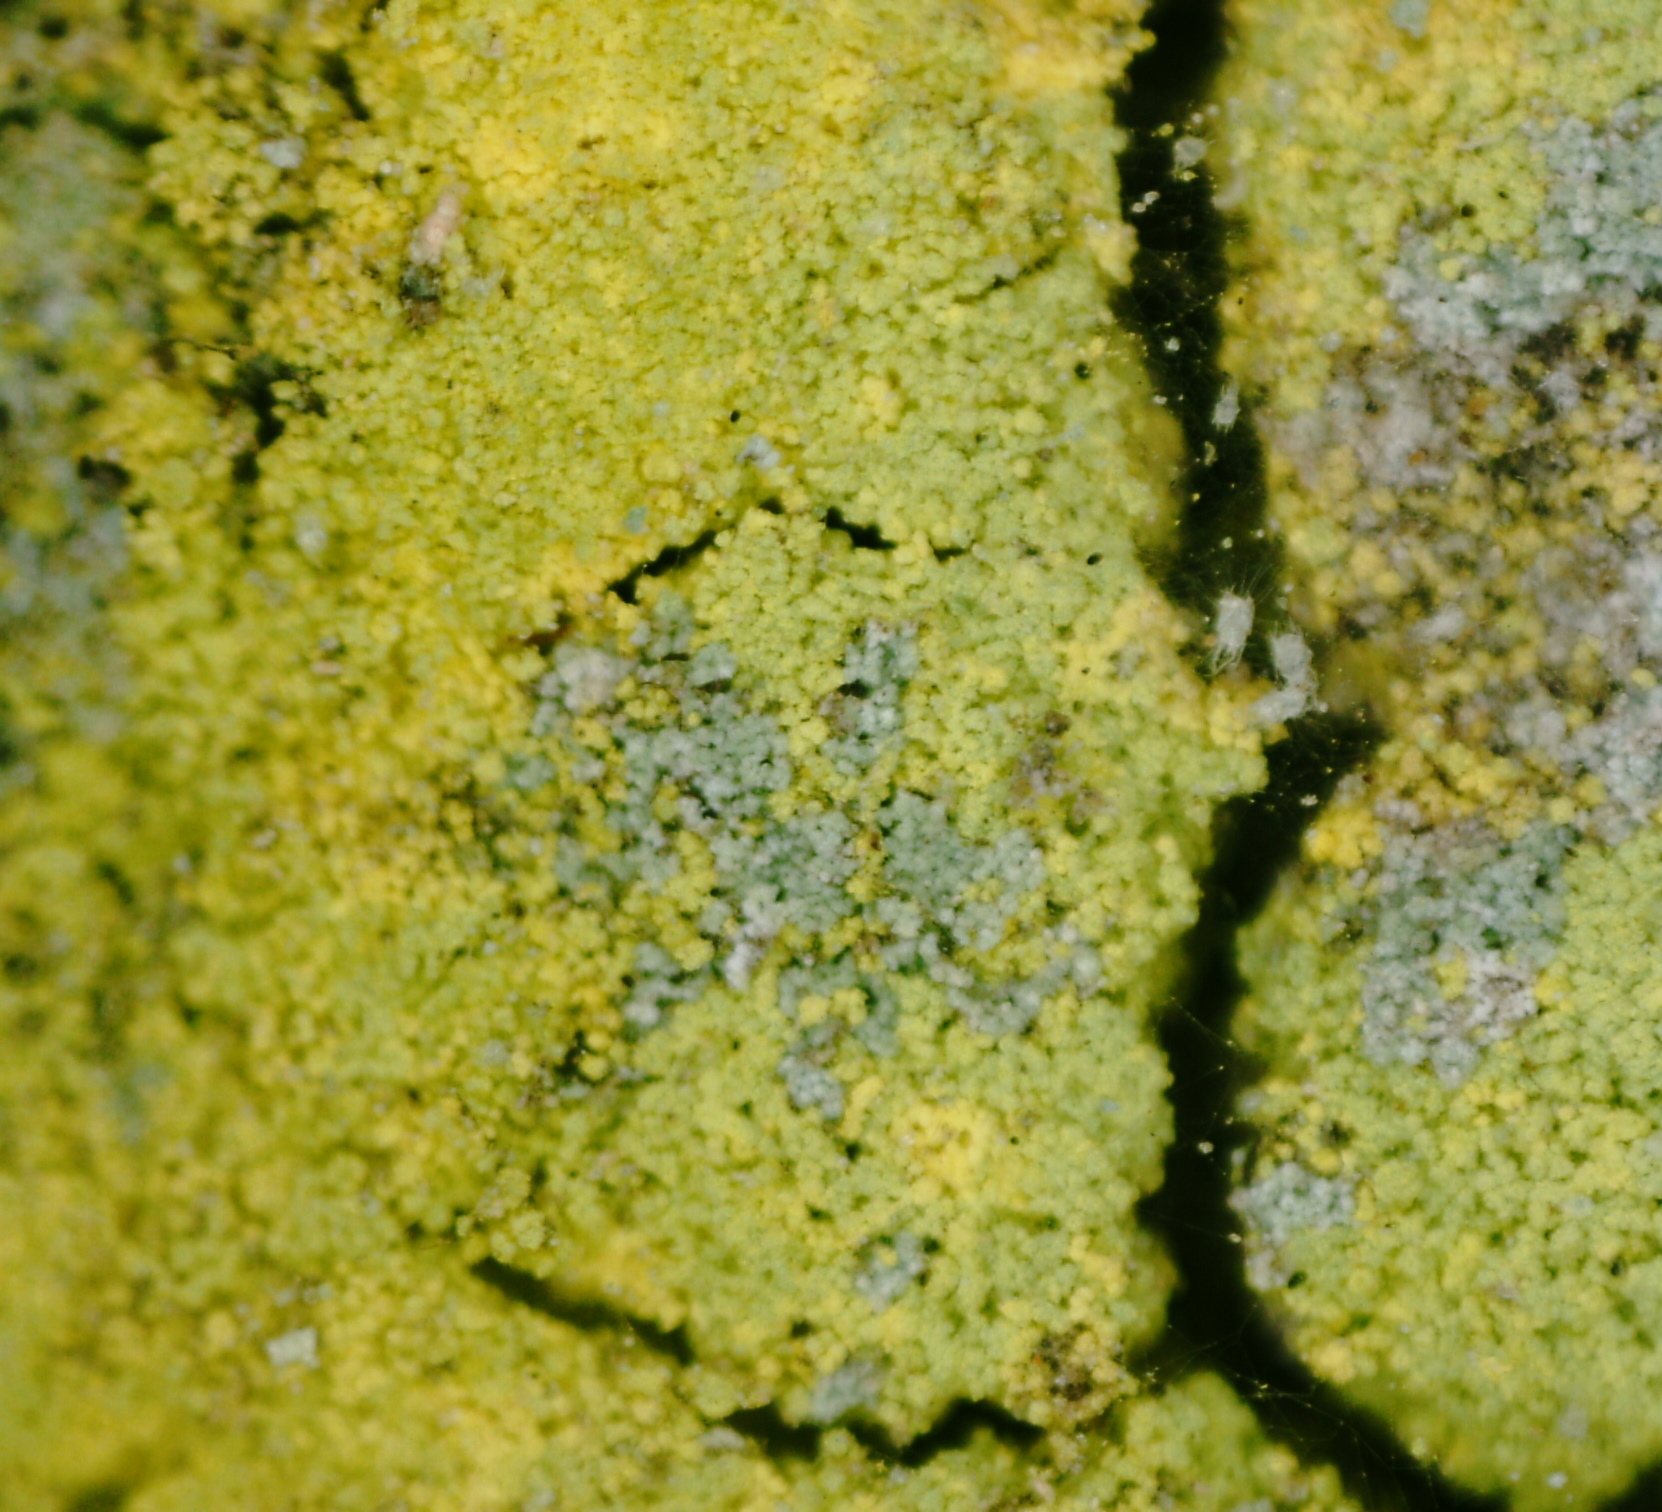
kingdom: Fungi
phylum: Ascomycota
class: Lecanoromycetes
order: Lecanorales
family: Psilolechiaceae
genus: Psilolechia
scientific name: Psilolechia lucida
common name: Sulphur dust lichen
